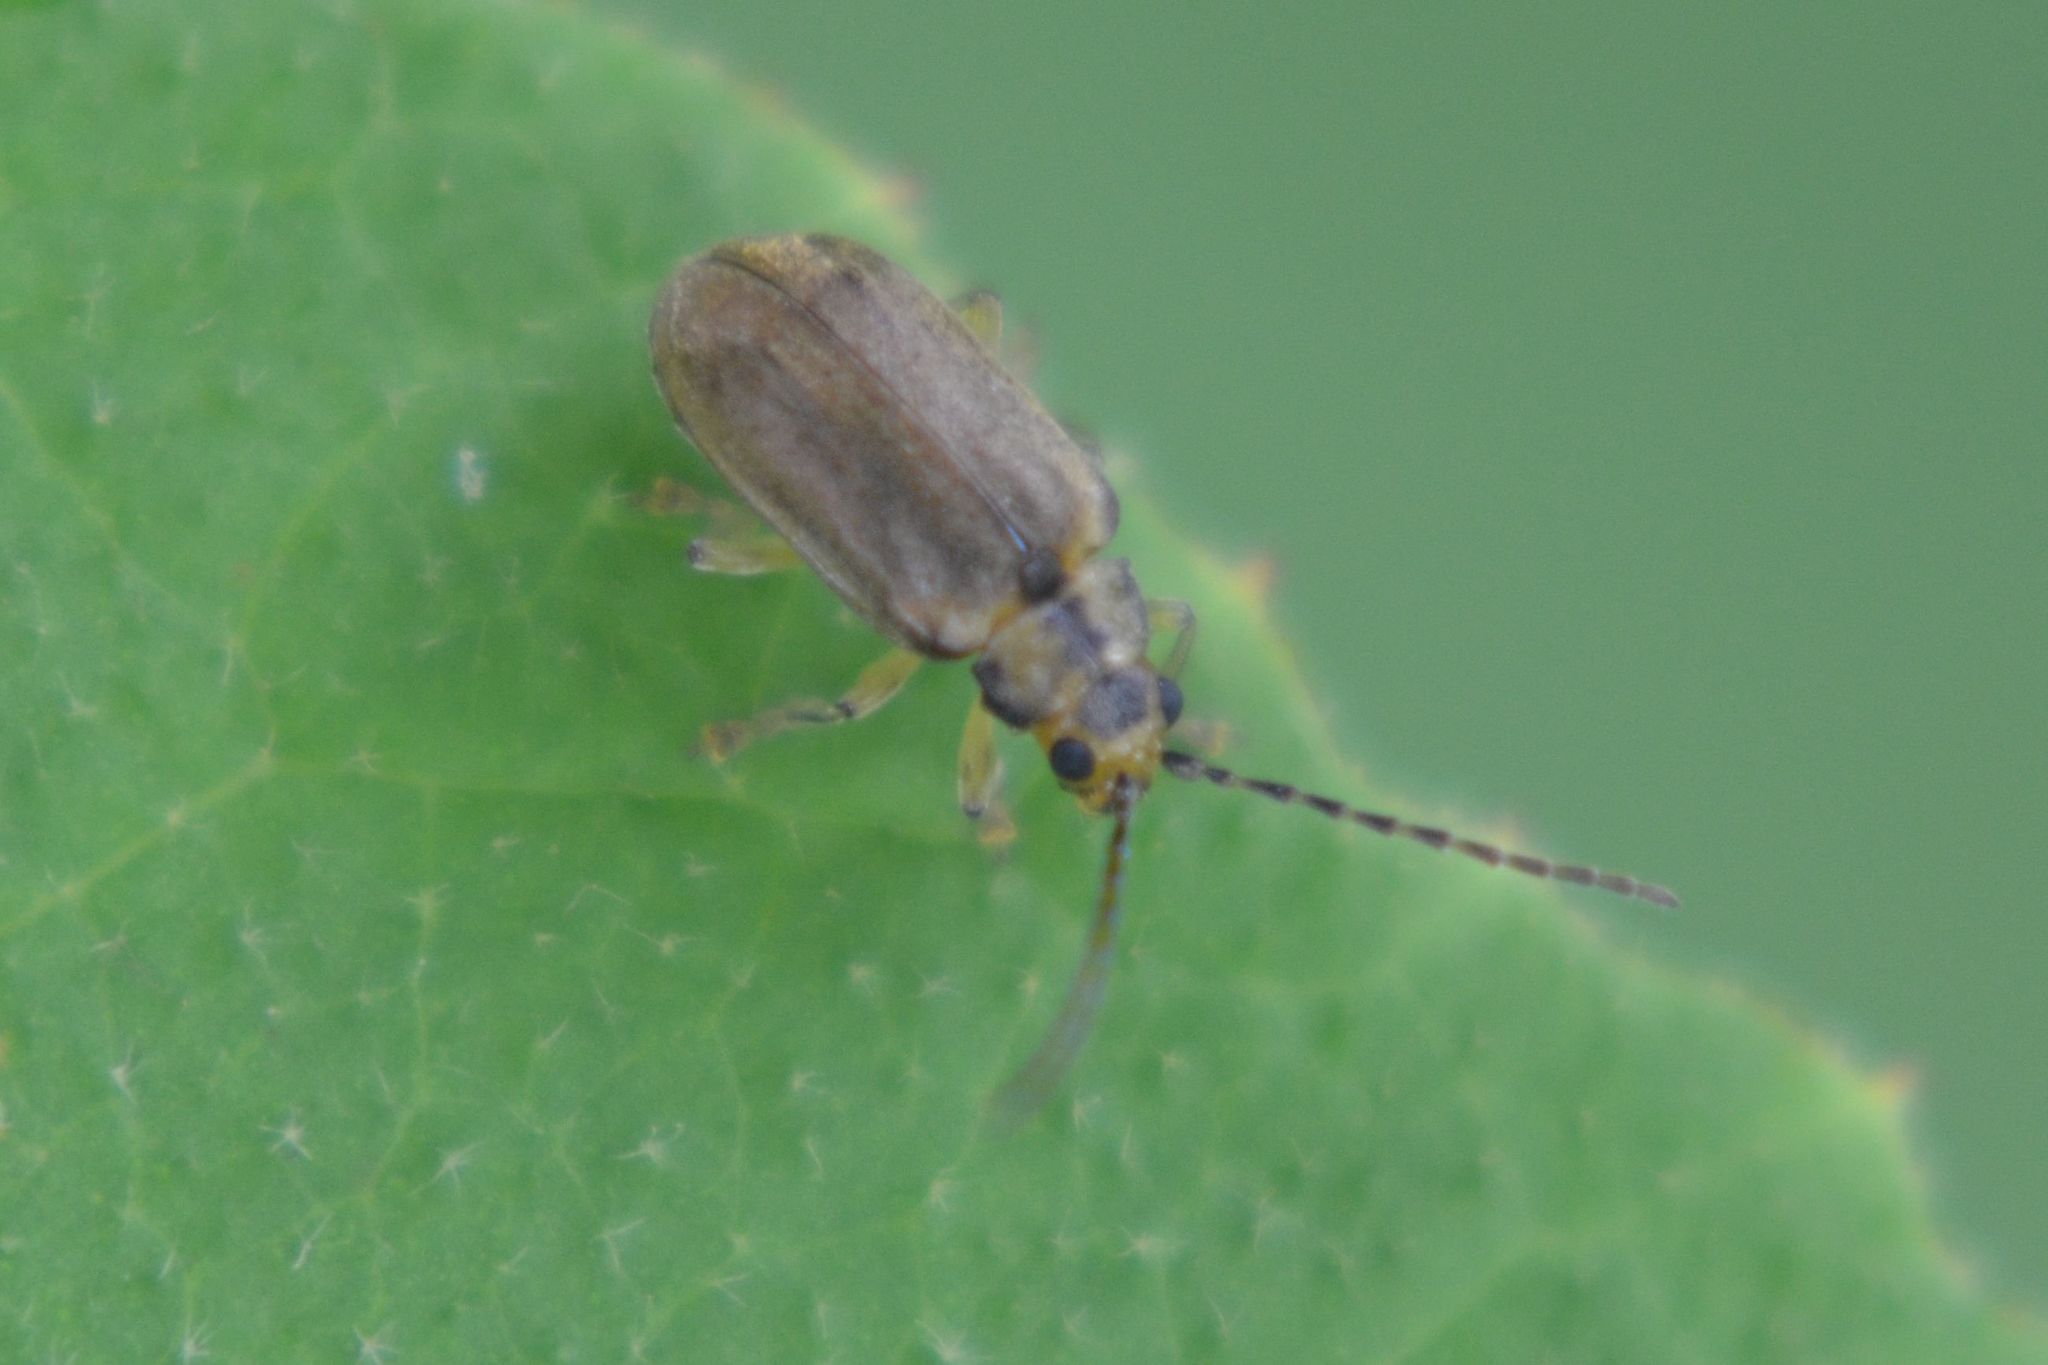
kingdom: Animalia
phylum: Arthropoda
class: Insecta
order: Coleoptera
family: Chrysomelidae
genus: Pyrrhalta
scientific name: Pyrrhalta viburni
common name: Guelder-rose leaf beetle
